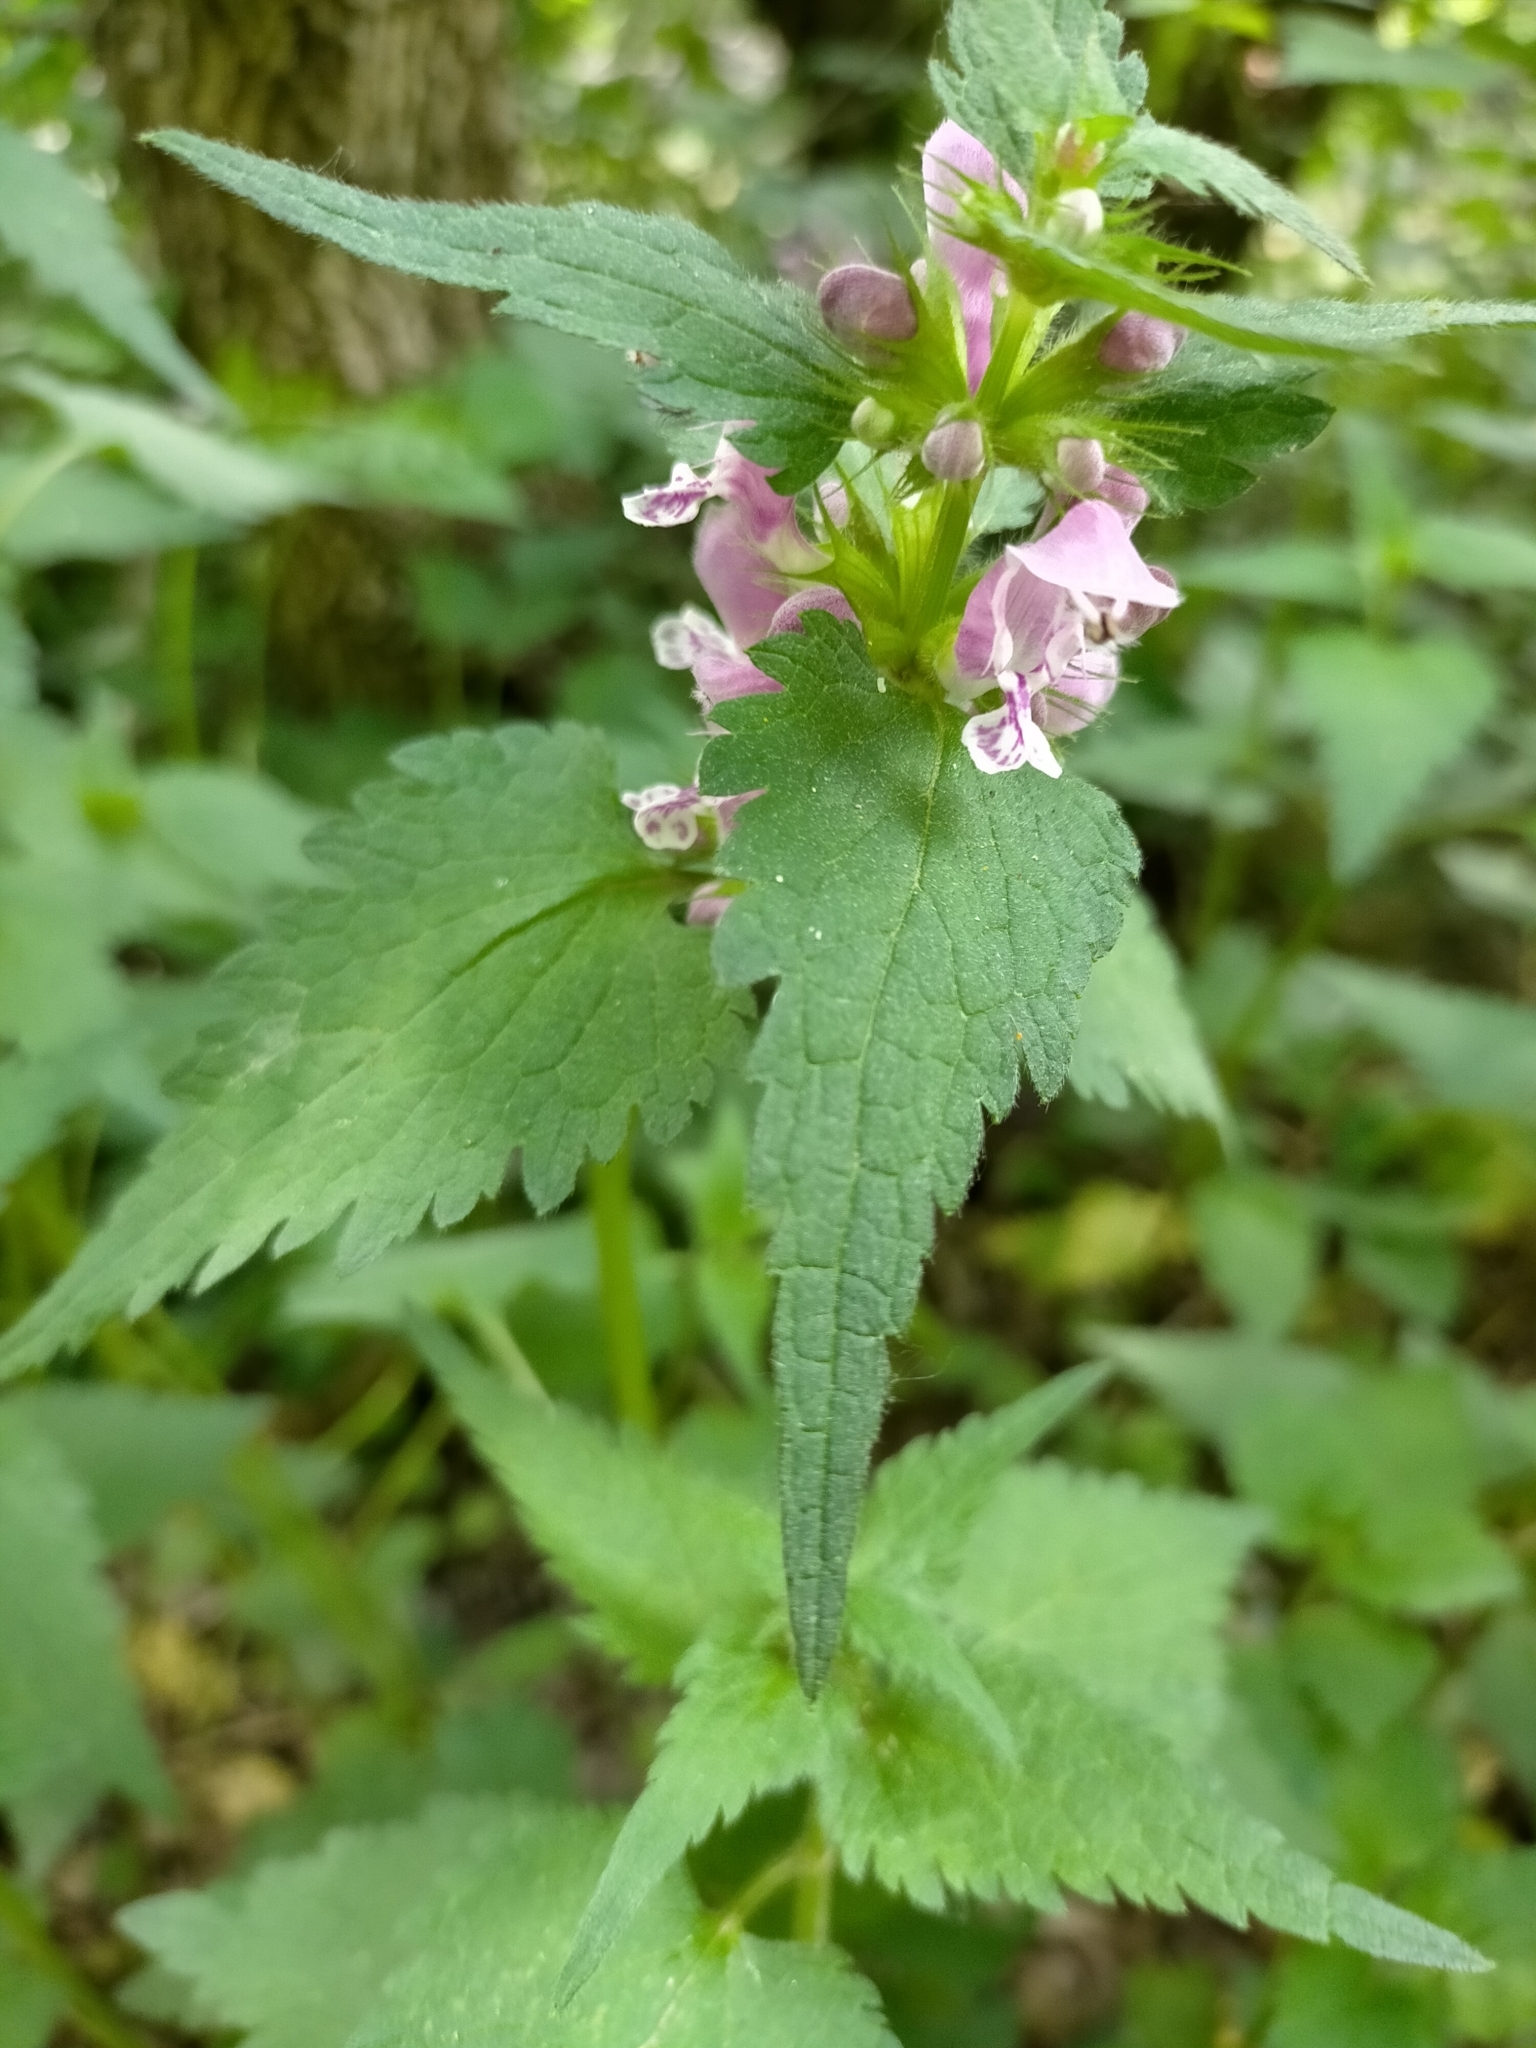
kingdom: Plantae
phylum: Tracheophyta
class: Magnoliopsida
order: Lamiales
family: Lamiaceae
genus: Lamium
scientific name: Lamium maculatum
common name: Spotted dead-nettle
